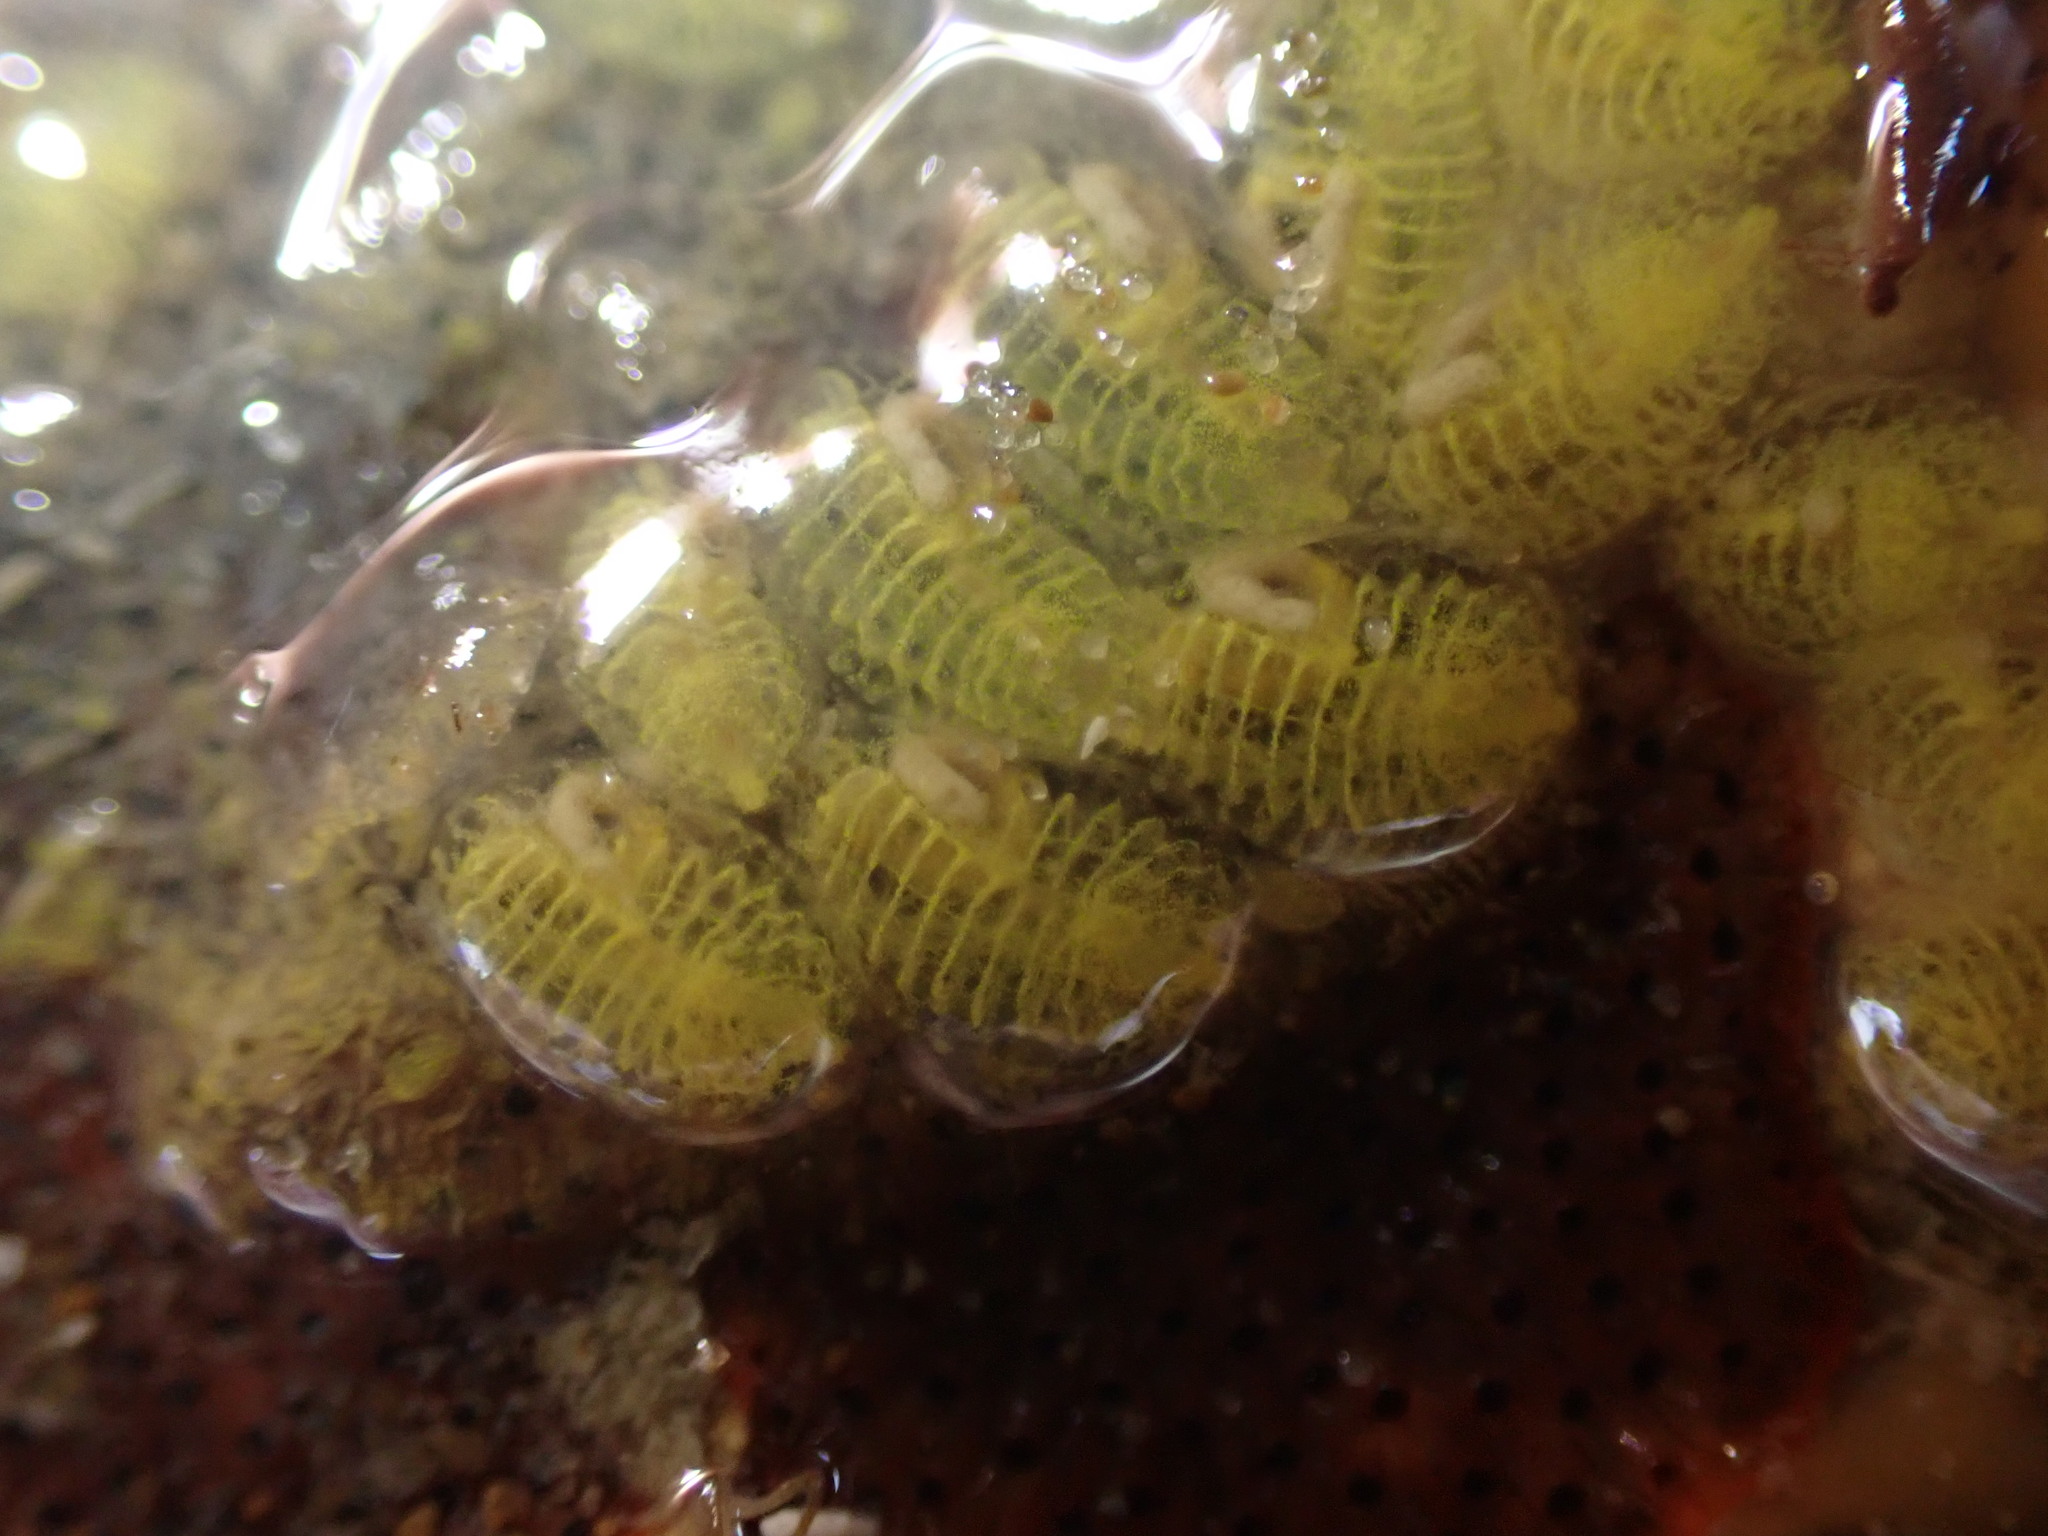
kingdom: Animalia
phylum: Chordata
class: Ascidiacea
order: Stolidobranchia
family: Styelidae
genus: Symplegma
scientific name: Symplegma brakenhielmi
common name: Ascidian
